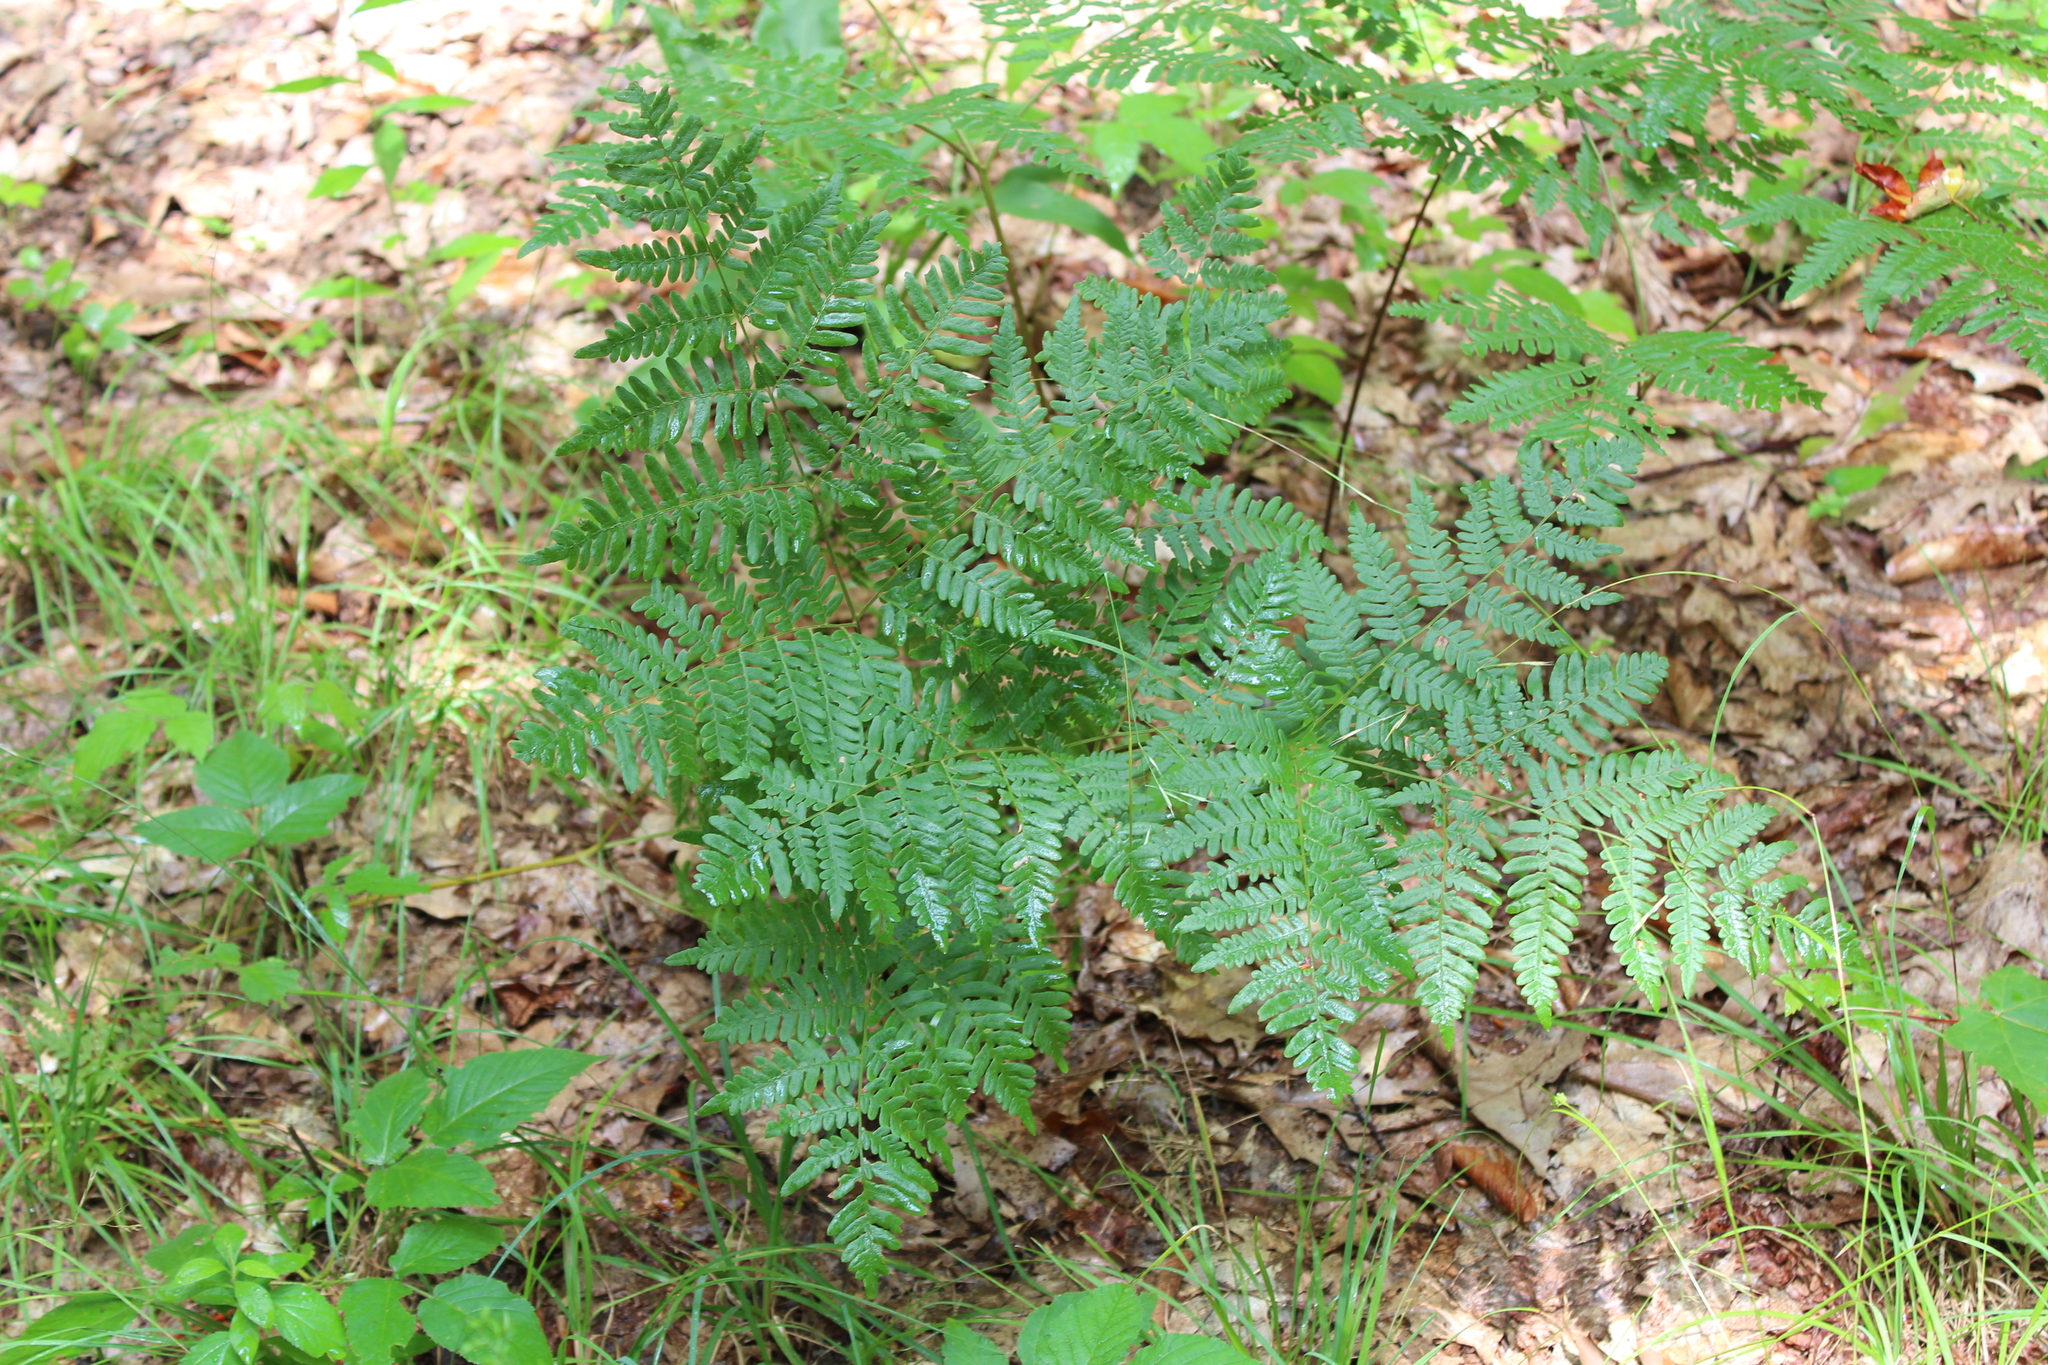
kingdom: Plantae
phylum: Tracheophyta
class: Polypodiopsida
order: Polypodiales
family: Dennstaedtiaceae
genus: Pteridium
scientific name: Pteridium aquilinum
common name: Bracken
